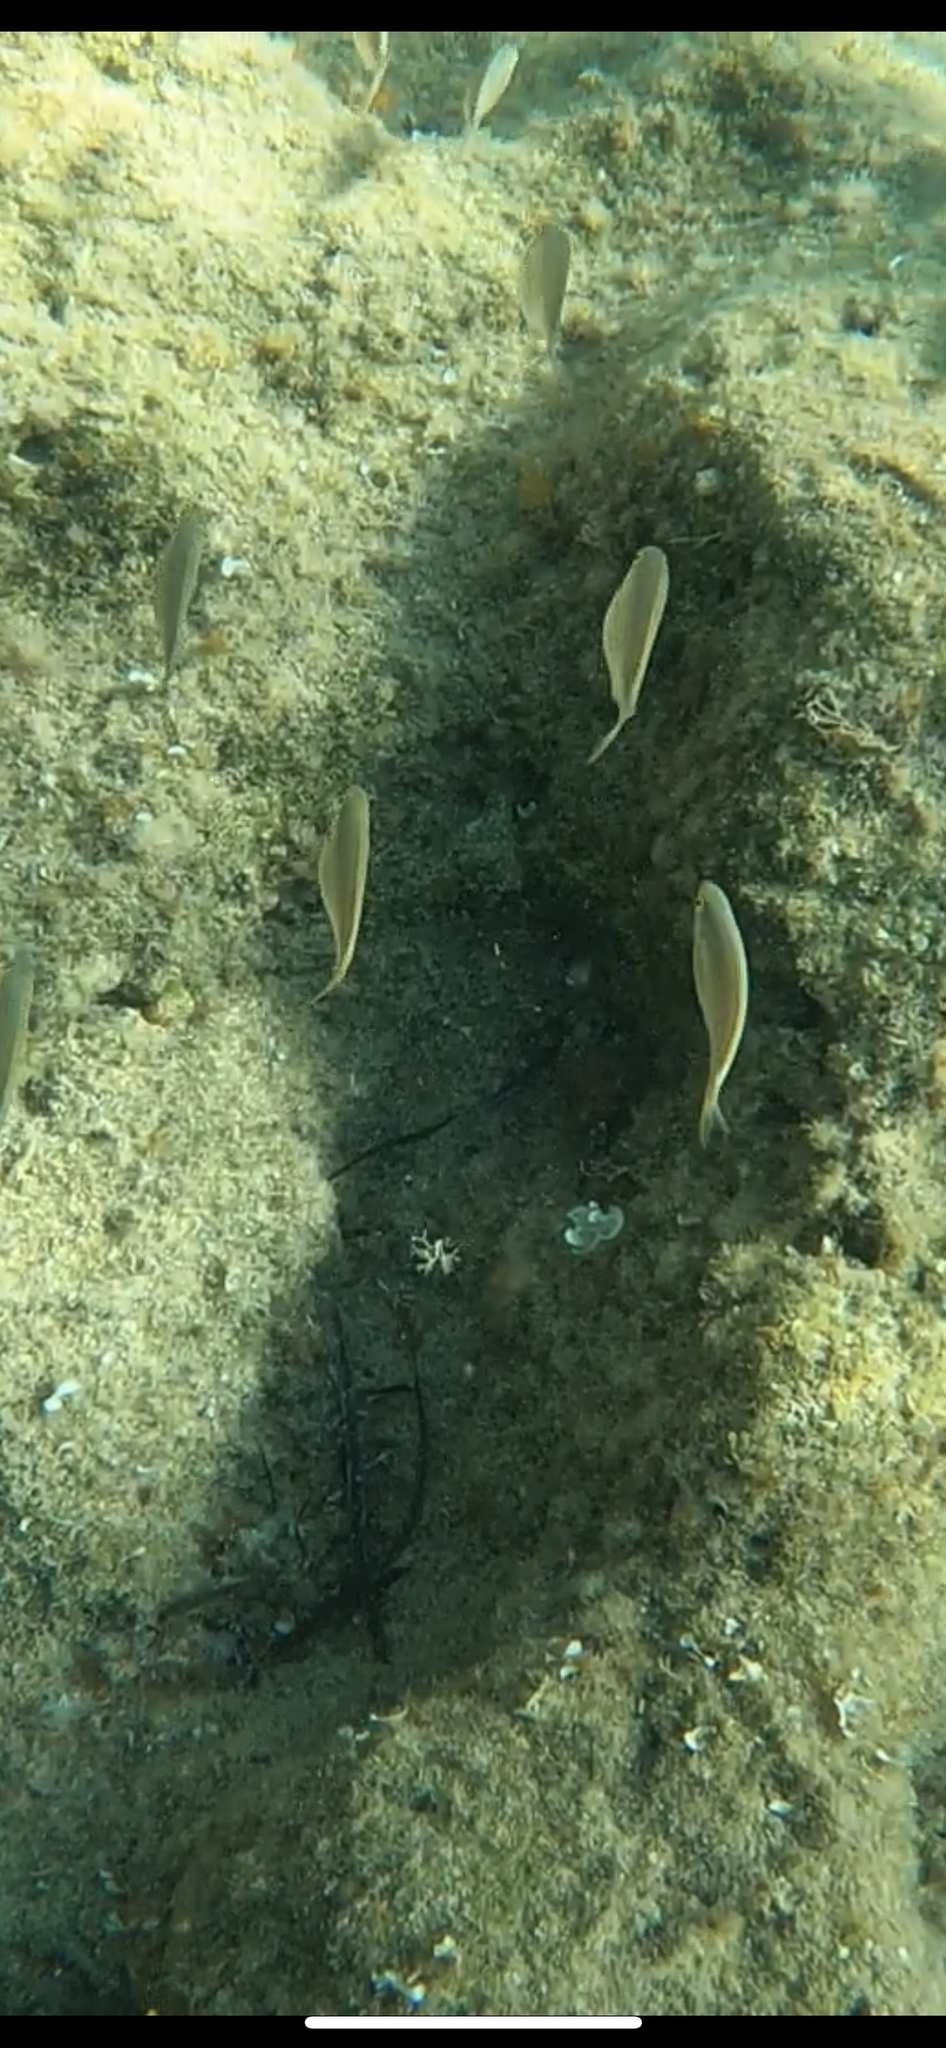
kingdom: Animalia
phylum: Chordata
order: Perciformes
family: Sparidae
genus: Sarpa
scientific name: Sarpa salpa
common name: Salema
